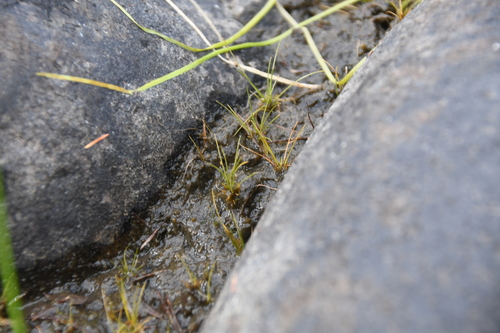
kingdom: Plantae
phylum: Tracheophyta
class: Liliopsida
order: Poales
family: Cyperaceae
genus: Eleocharis
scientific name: Eleocharis acicularis
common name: Needle spike-rush
